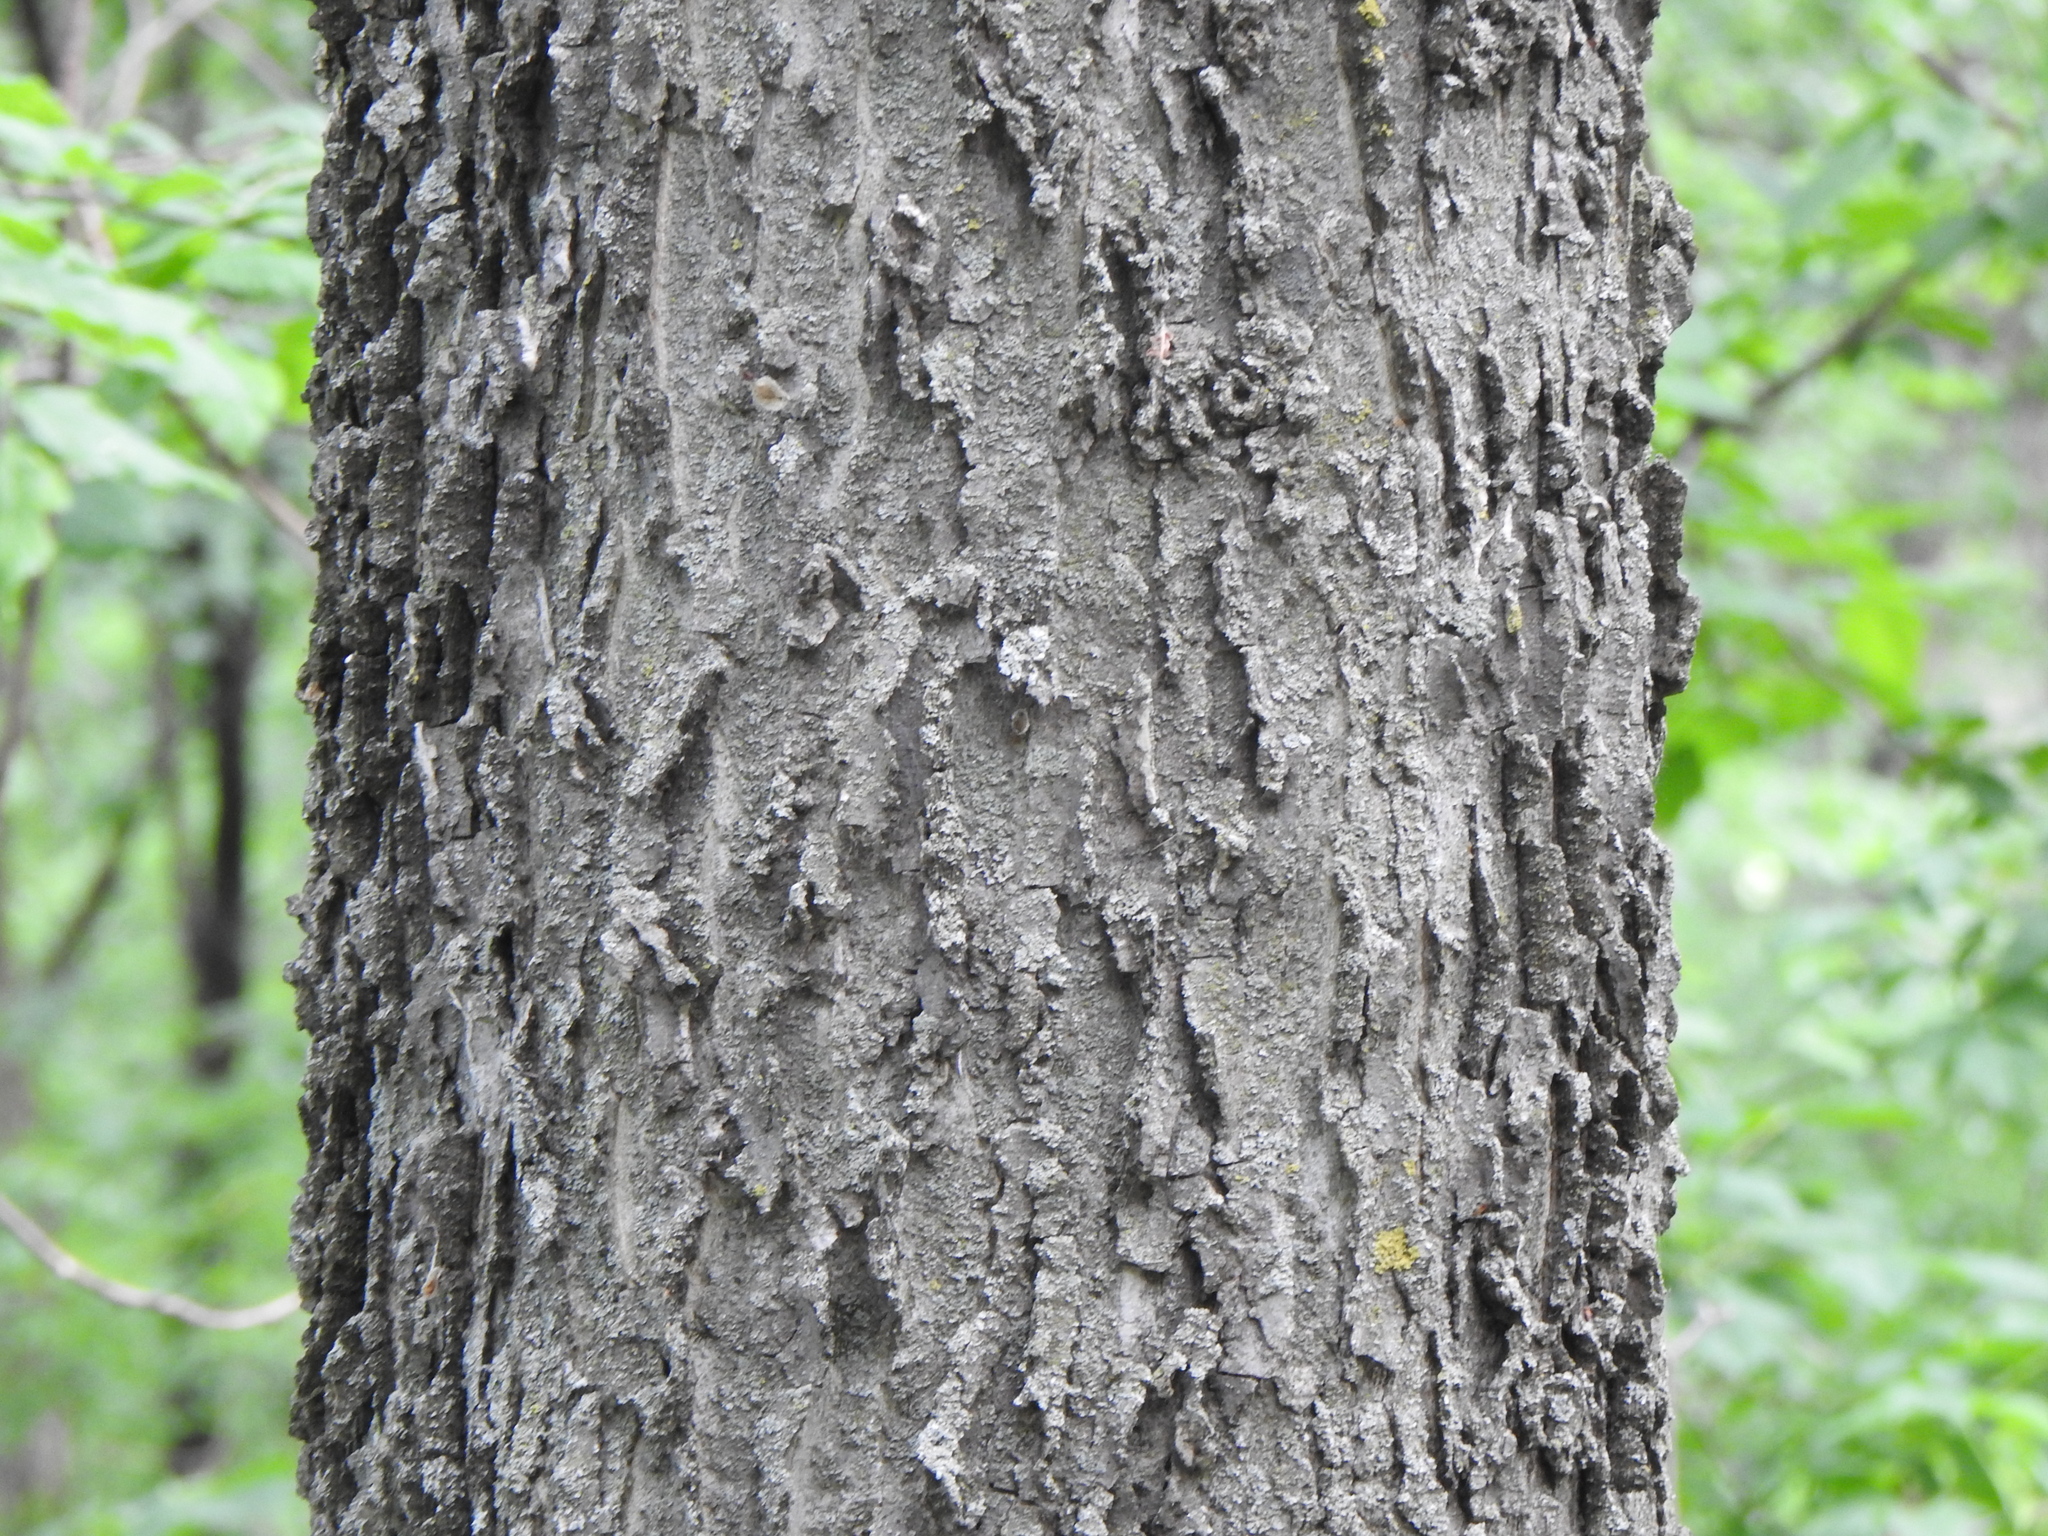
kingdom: Plantae
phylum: Tracheophyta
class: Magnoliopsida
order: Rosales
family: Cannabaceae
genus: Celtis
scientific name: Celtis occidentalis
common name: Common hackberry
